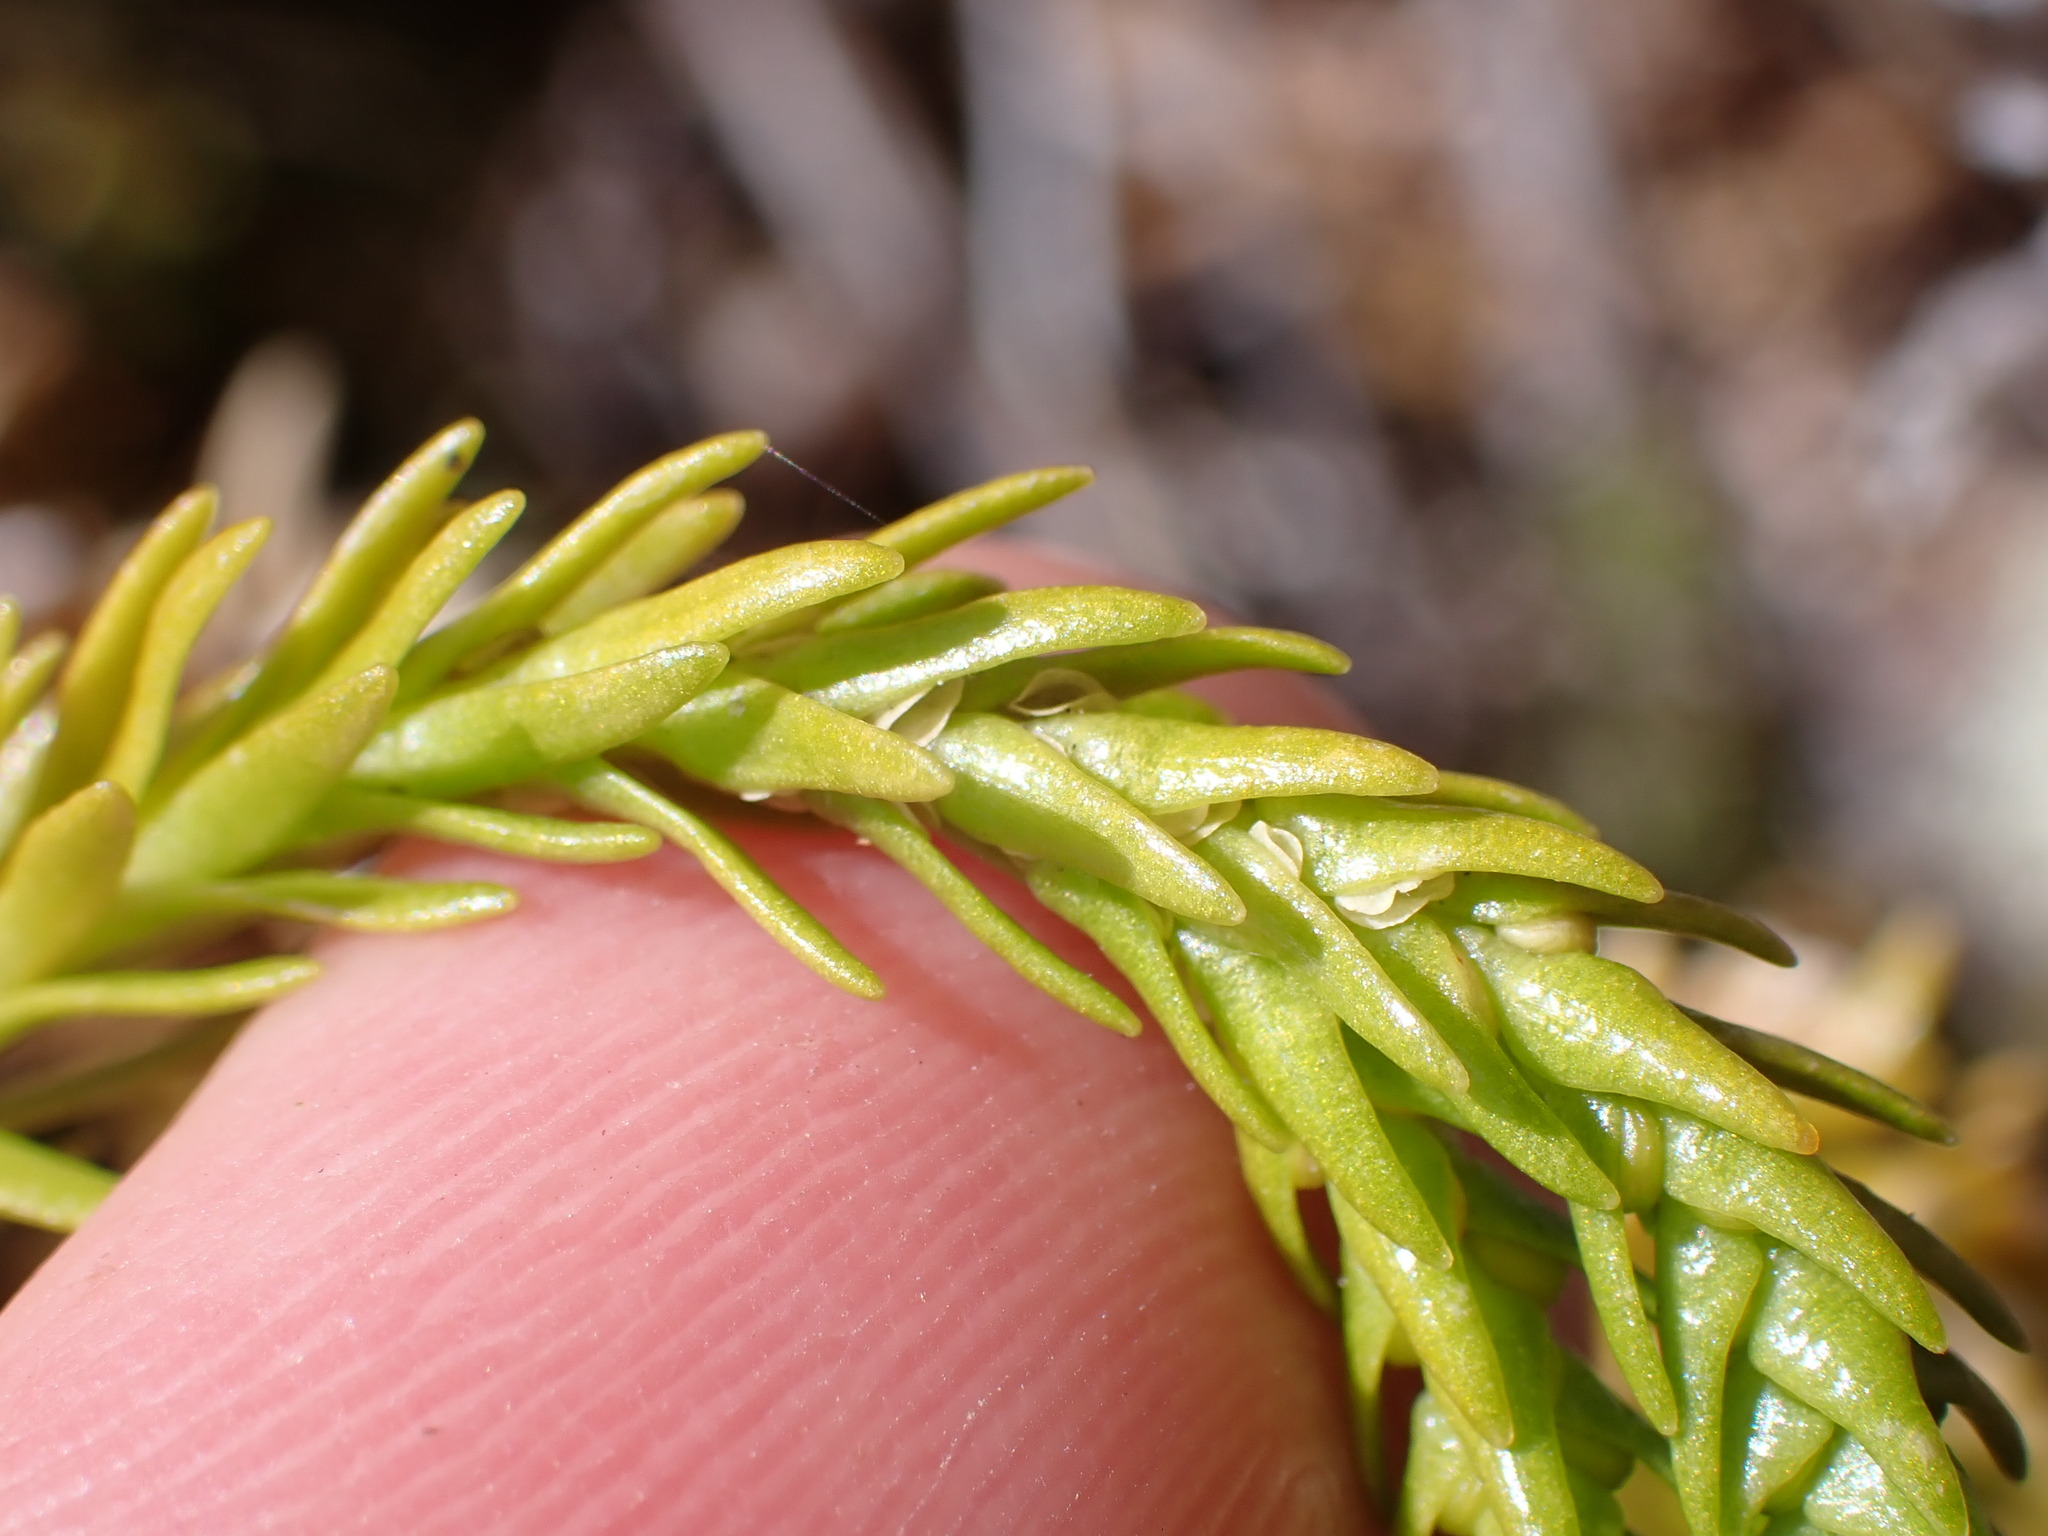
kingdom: Plantae
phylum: Tracheophyta
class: Lycopodiopsida
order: Lycopodiales
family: Lycopodiaceae
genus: Phlegmariurus
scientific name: Phlegmariurus varius
